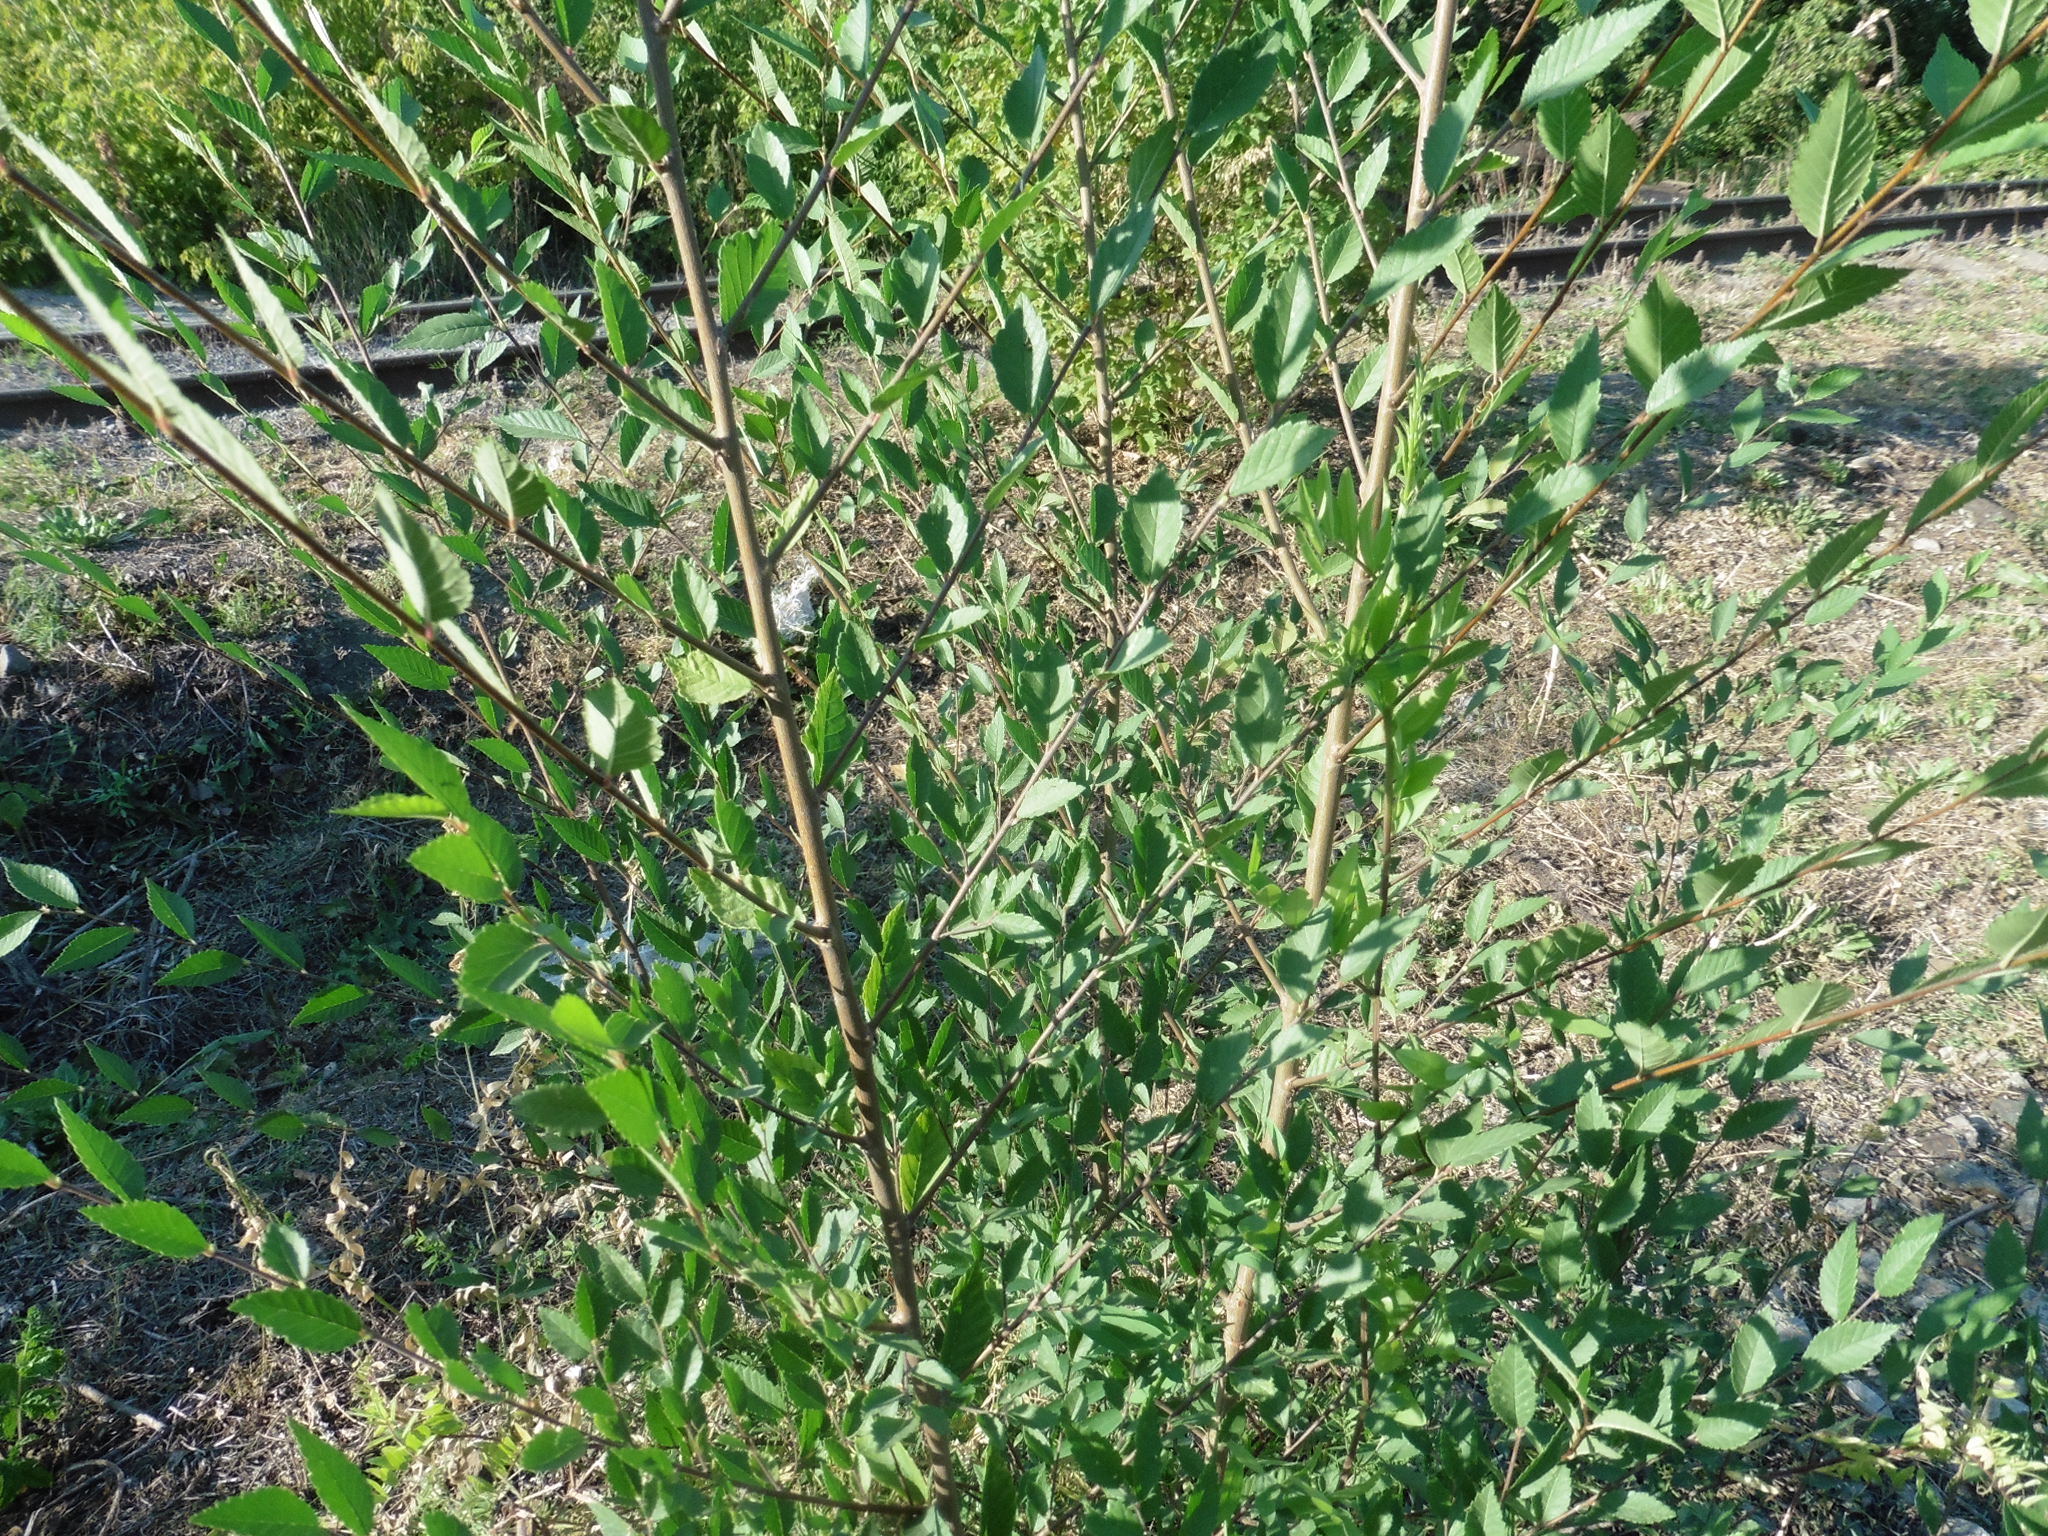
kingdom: Plantae
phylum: Tracheophyta
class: Magnoliopsida
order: Rosales
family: Ulmaceae
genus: Ulmus
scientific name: Ulmus pumila
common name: Siberian elm
